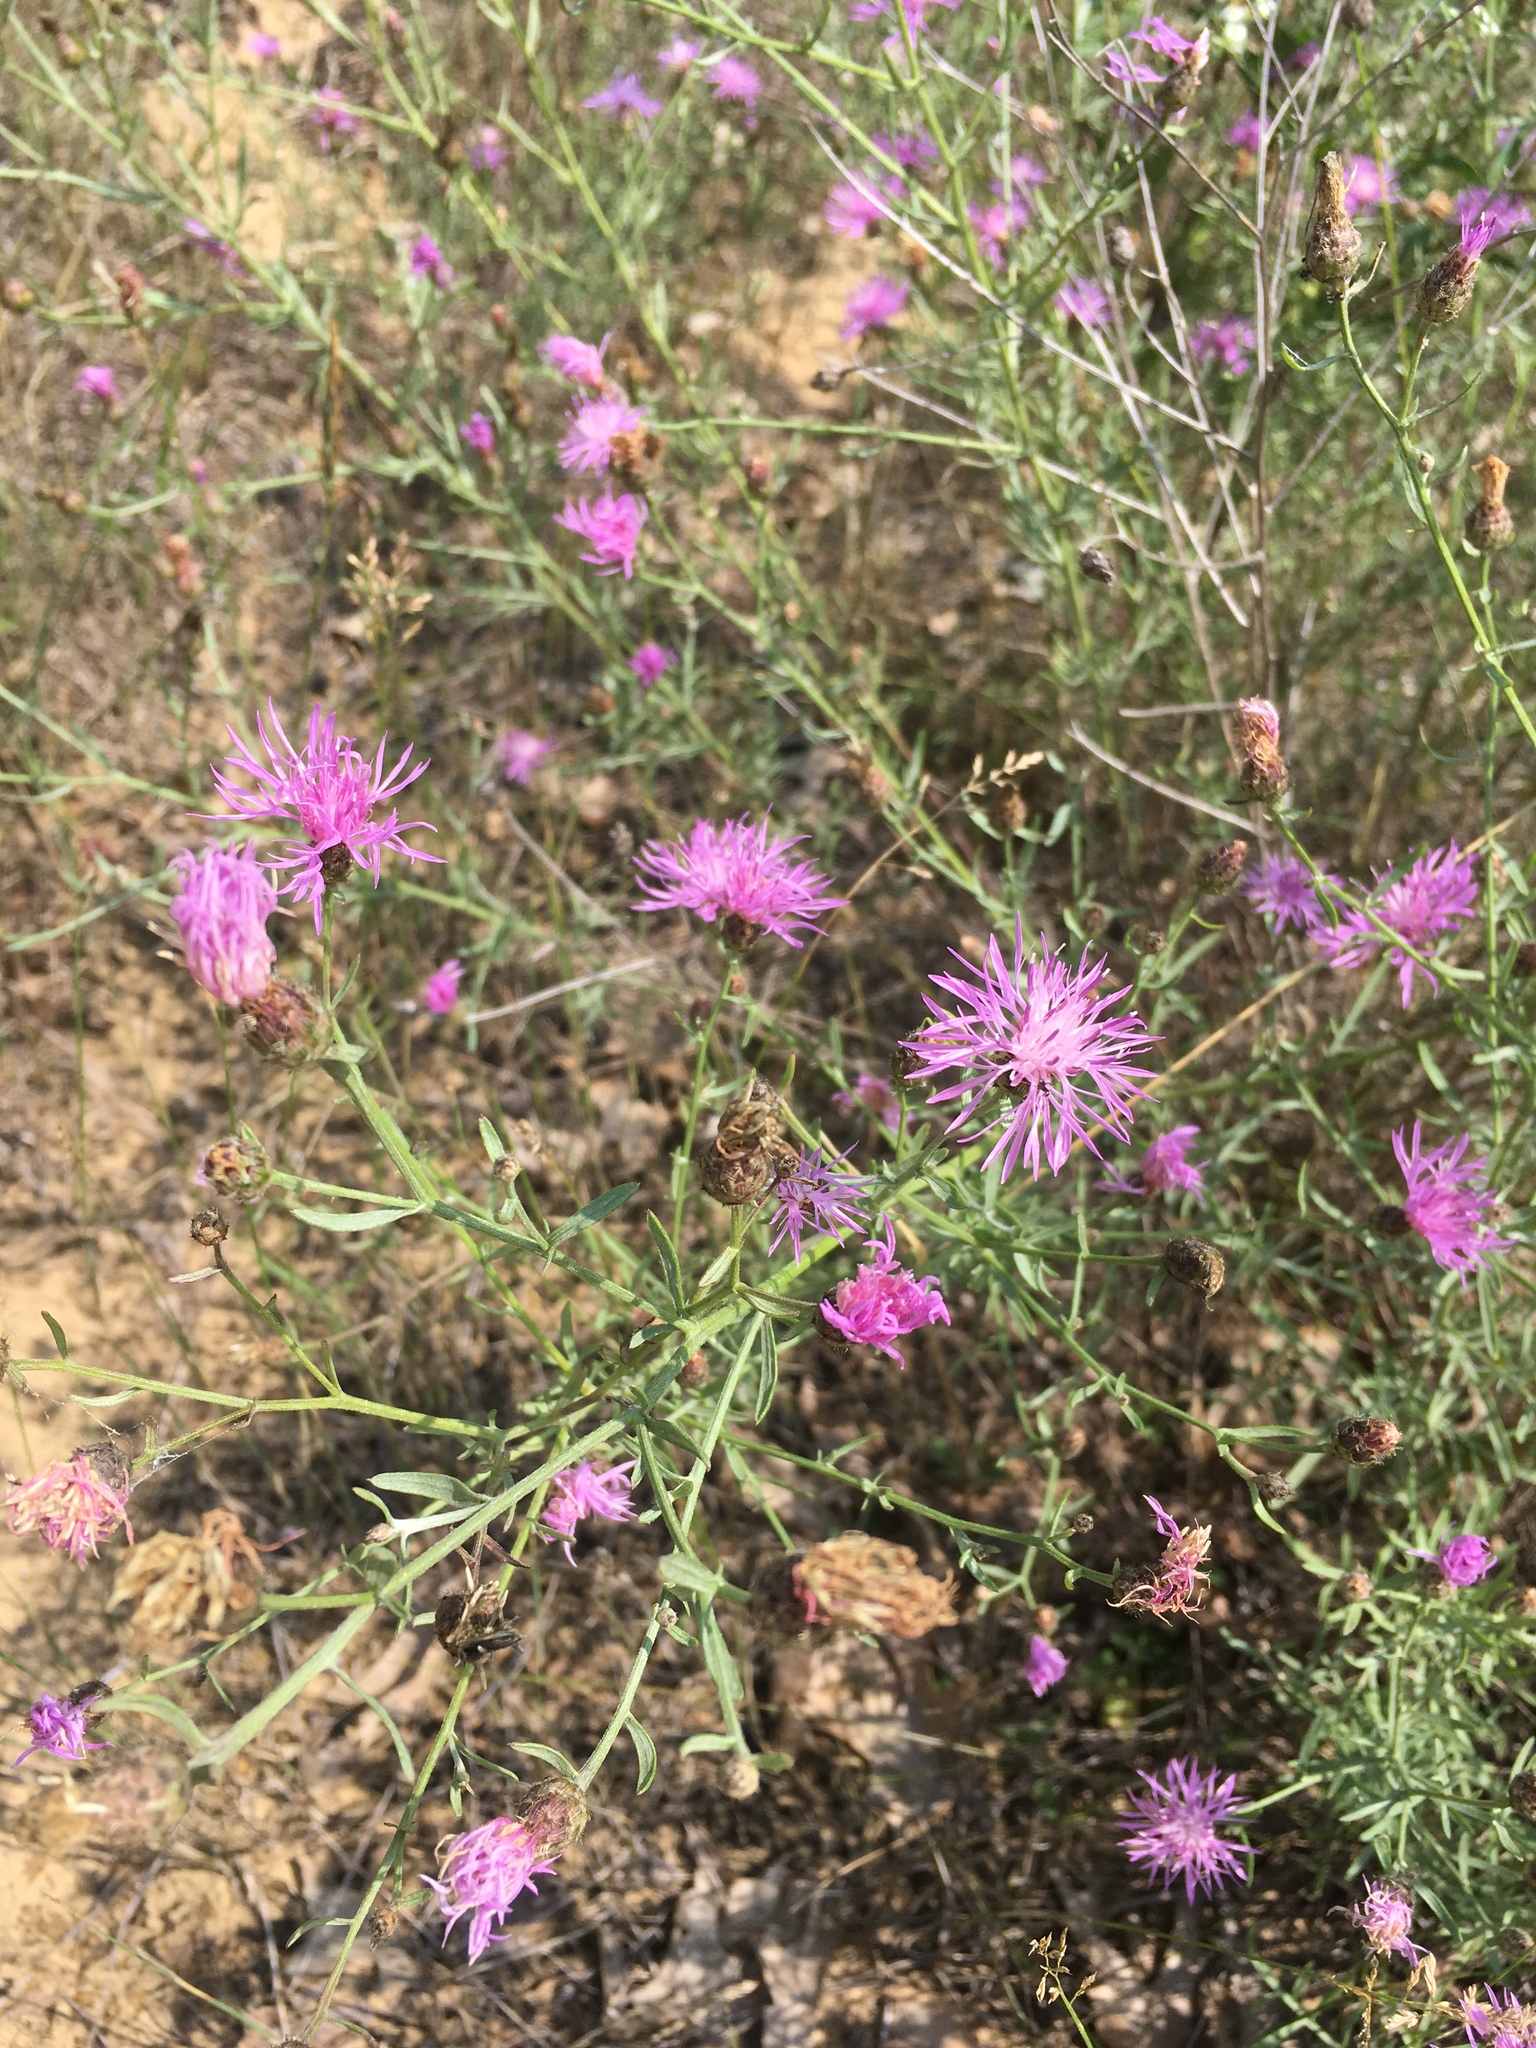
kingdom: Plantae
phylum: Tracheophyta
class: Magnoliopsida
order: Asterales
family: Asteraceae
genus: Centaurea
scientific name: Centaurea stoebe
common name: Spotted knapweed
